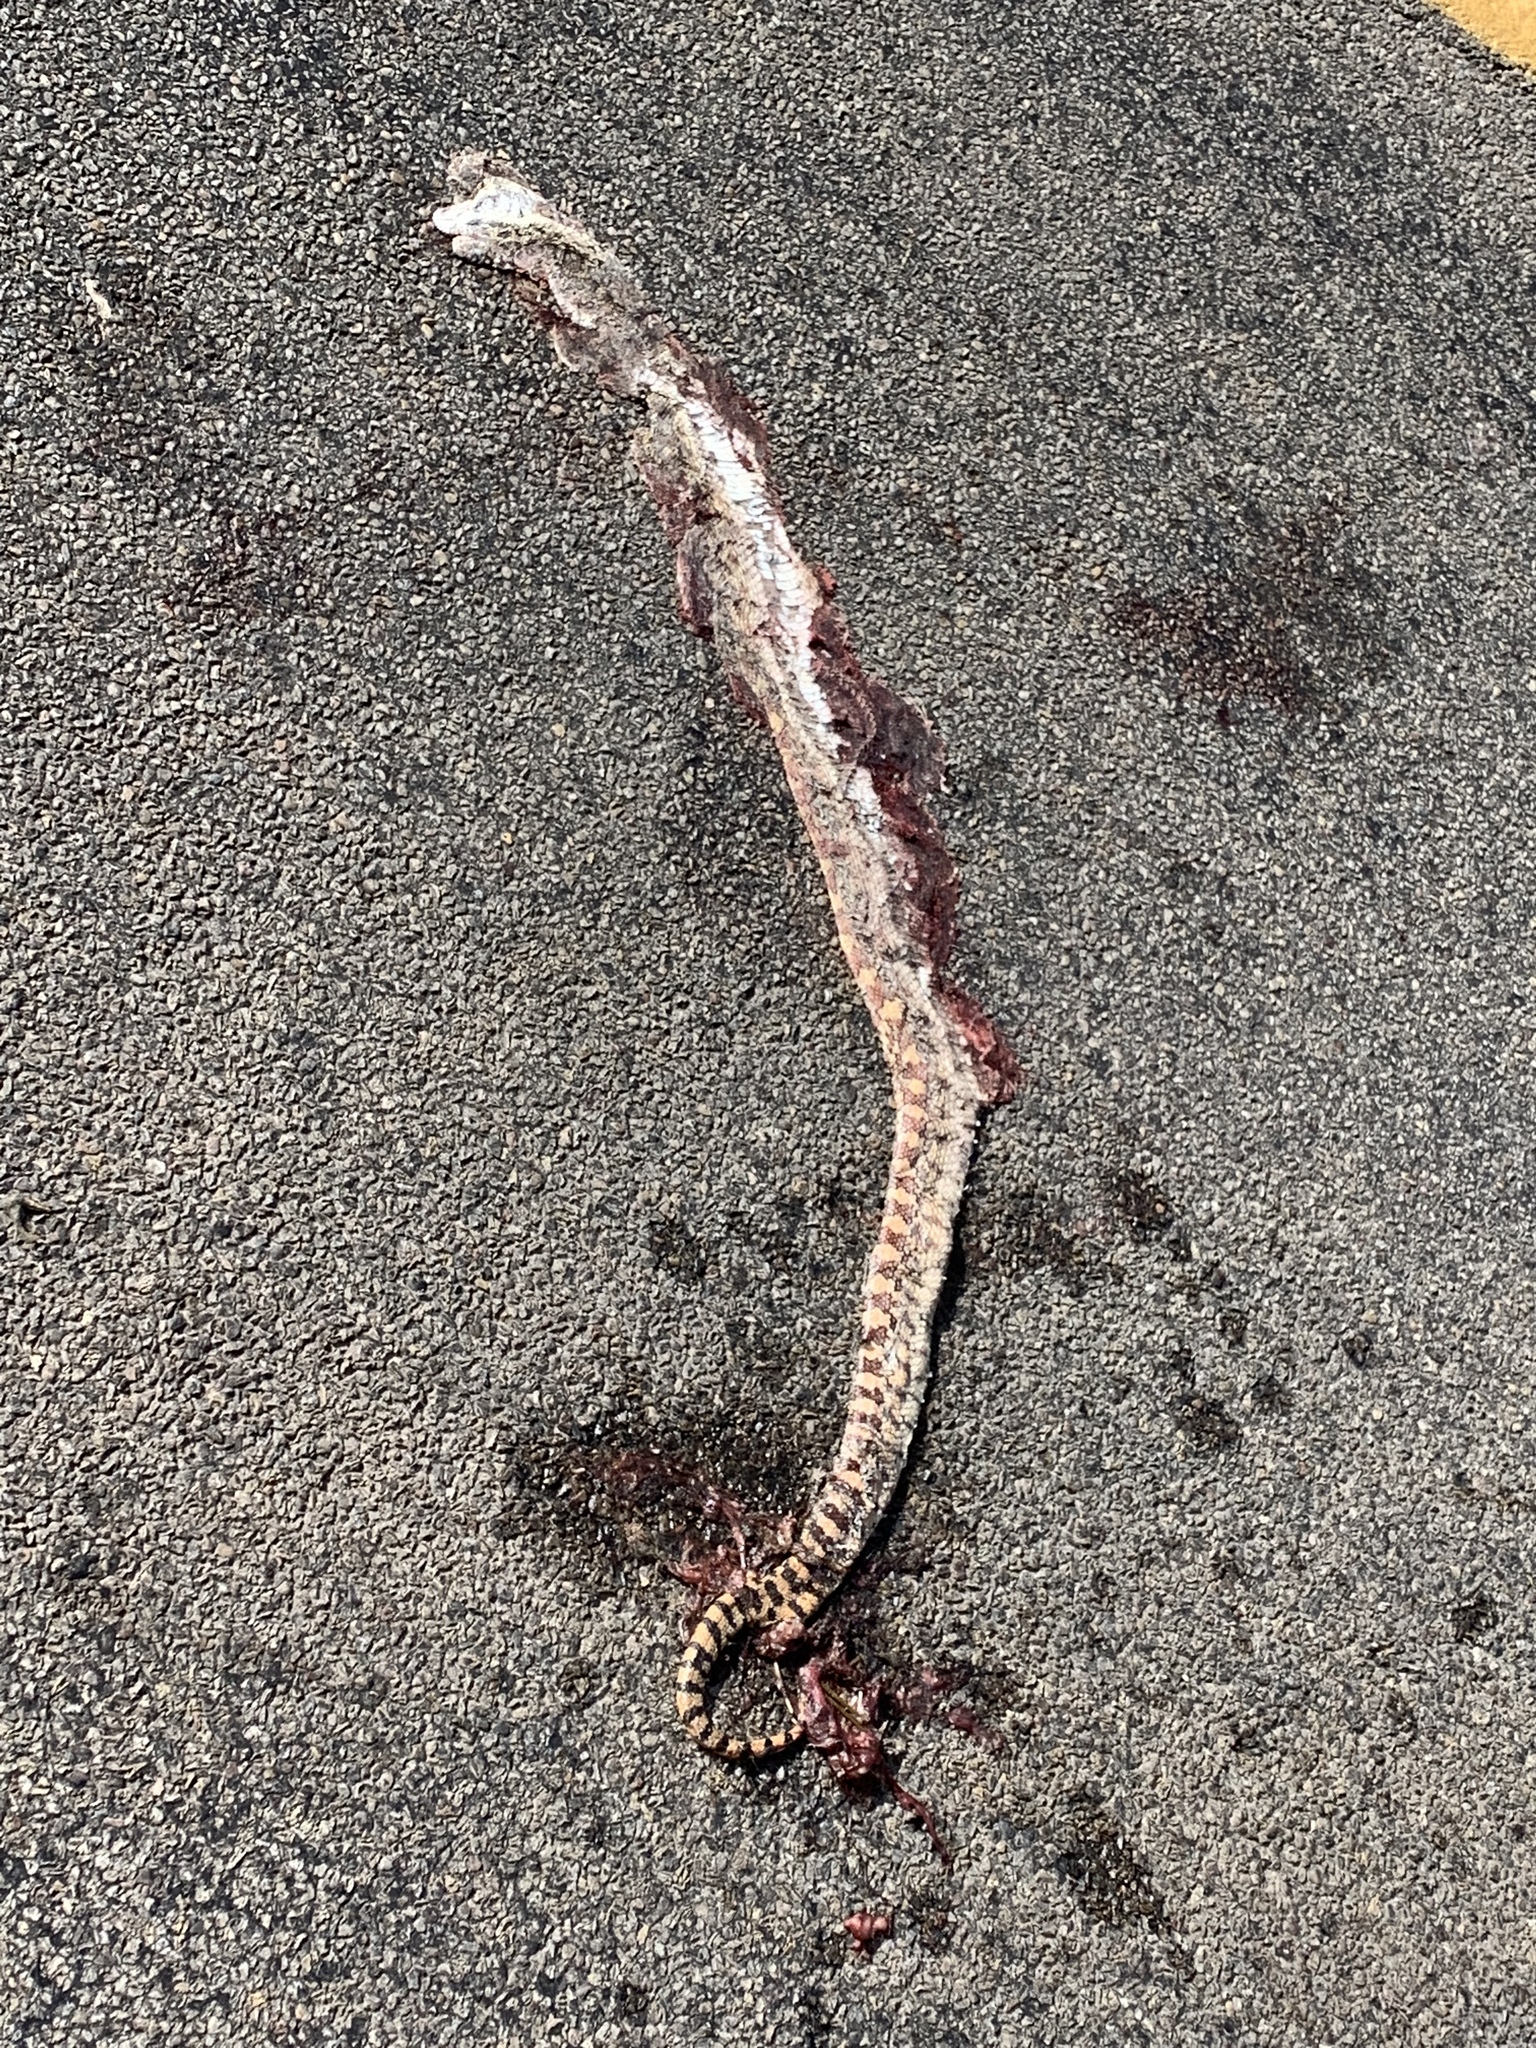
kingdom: Animalia
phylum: Chordata
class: Squamata
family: Colubridae
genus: Pituophis
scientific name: Pituophis catenifer
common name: Gopher snake
